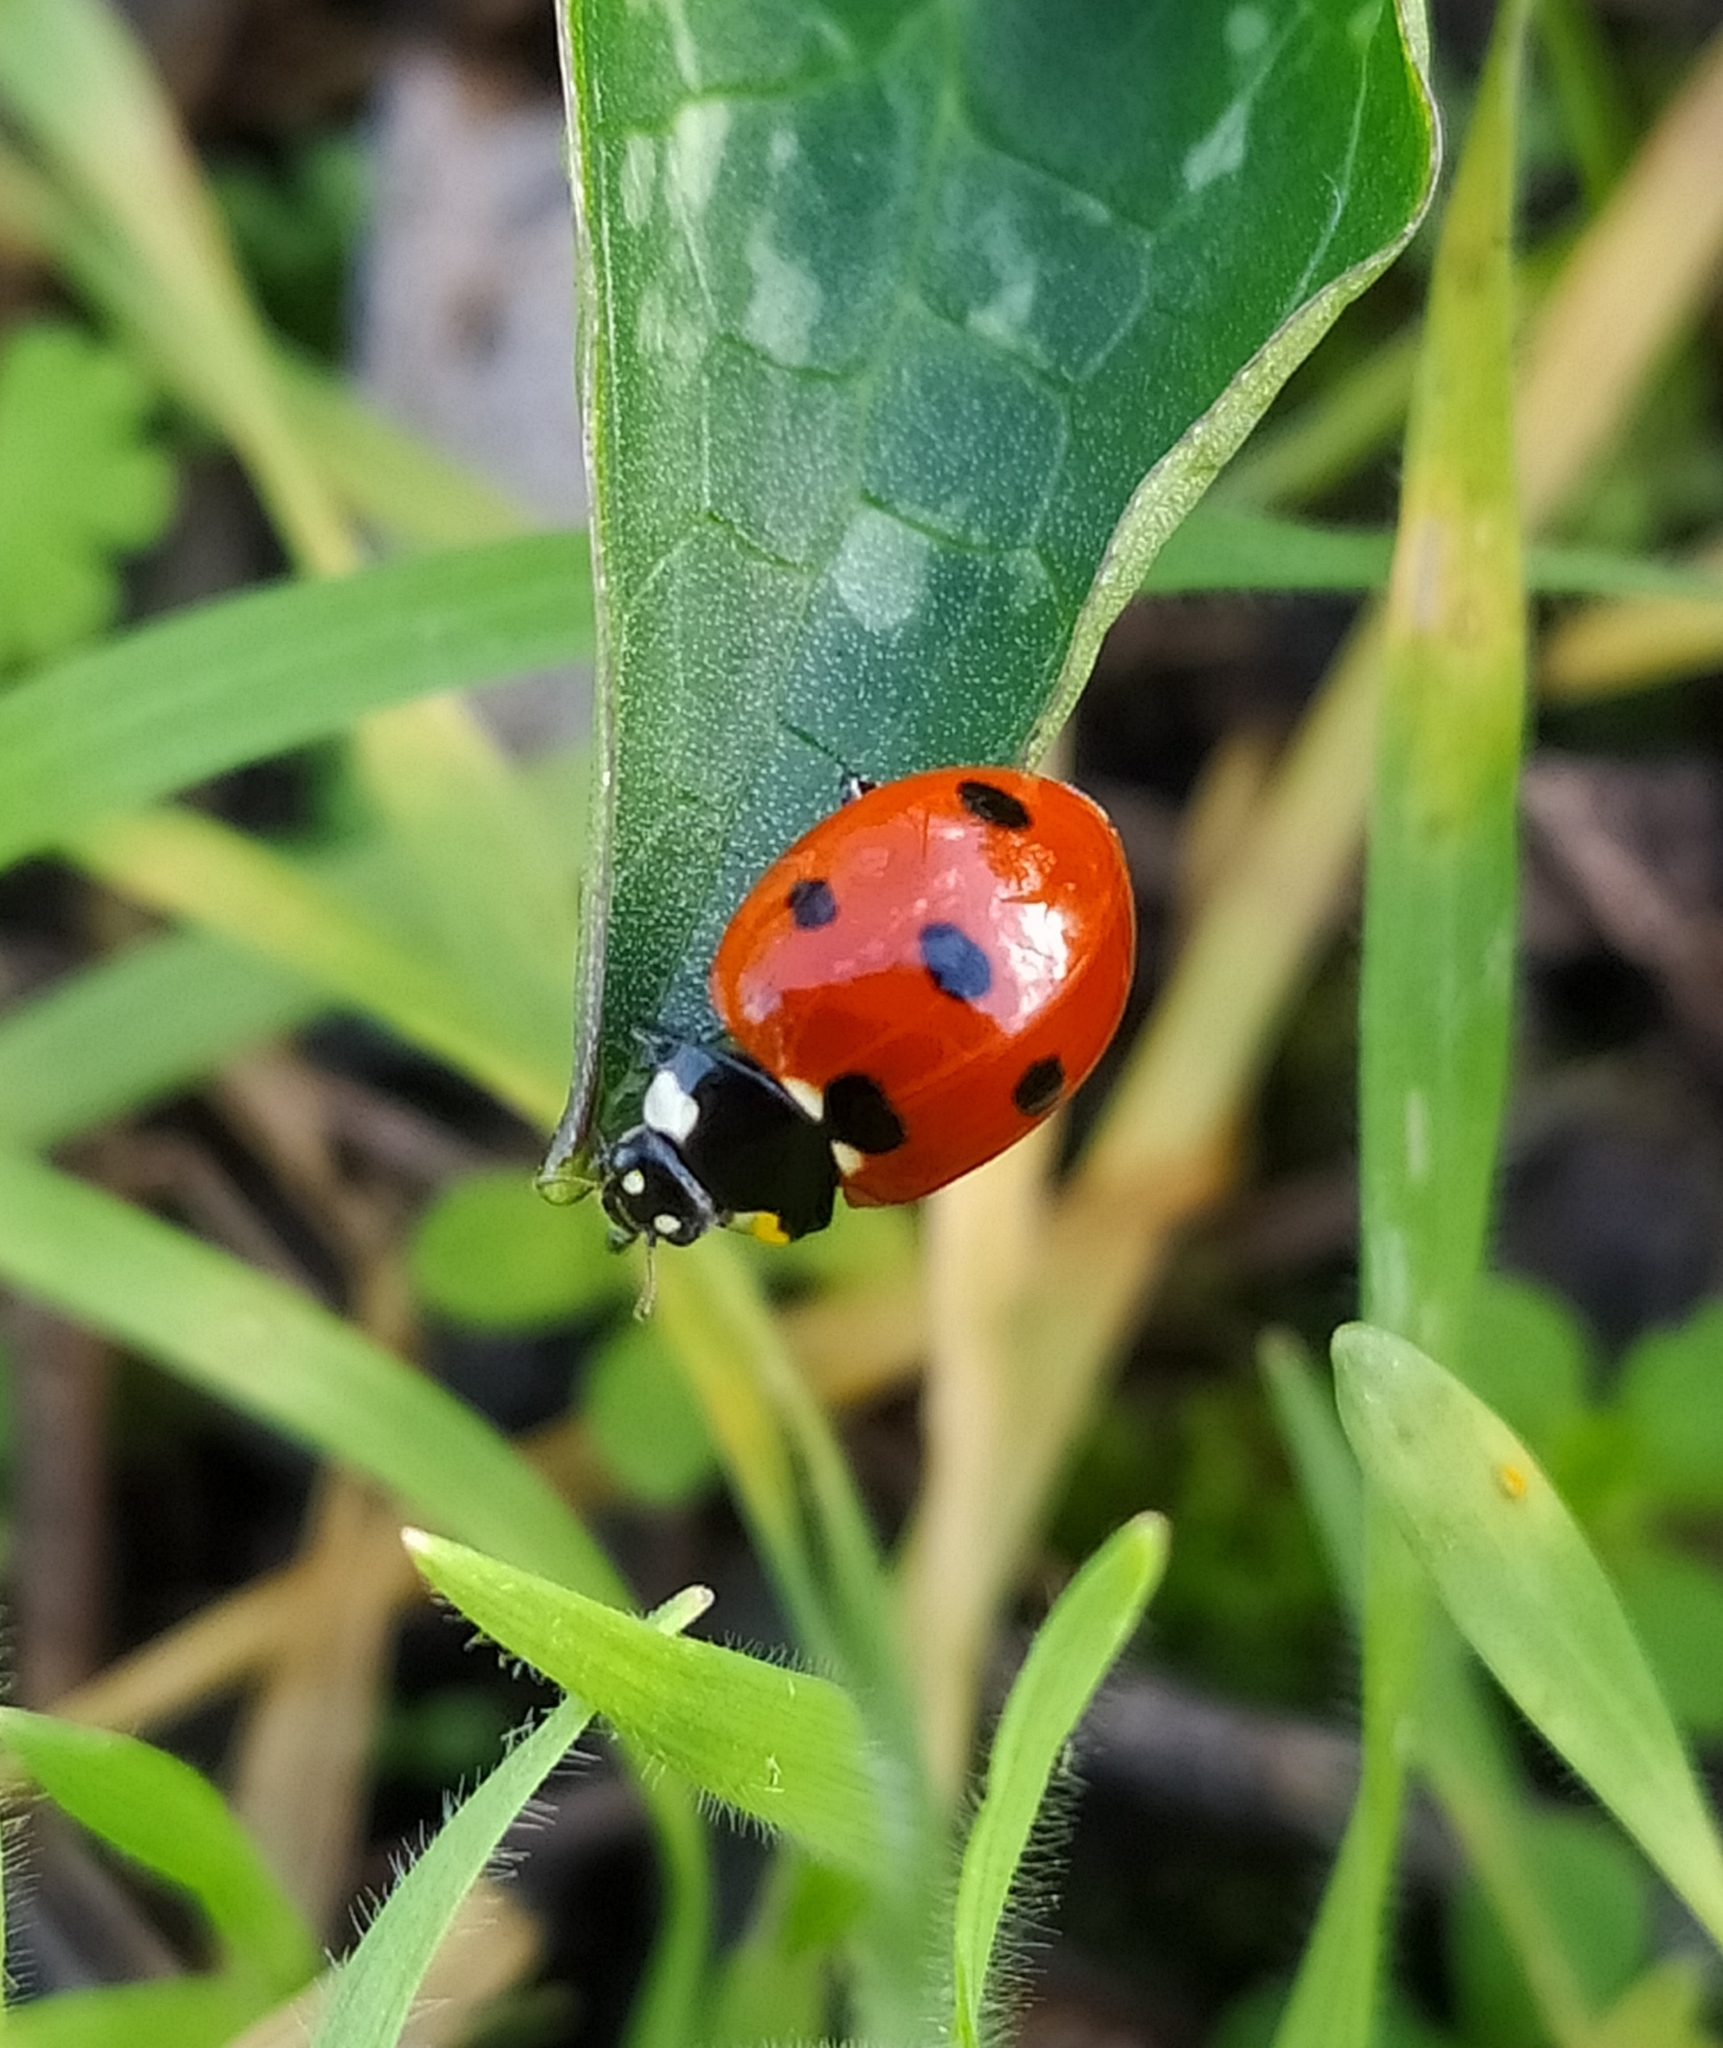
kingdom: Animalia
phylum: Arthropoda
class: Insecta
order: Coleoptera
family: Coccinellidae
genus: Coccinella
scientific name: Coccinella septempunctata
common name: Sevenspotted lady beetle
